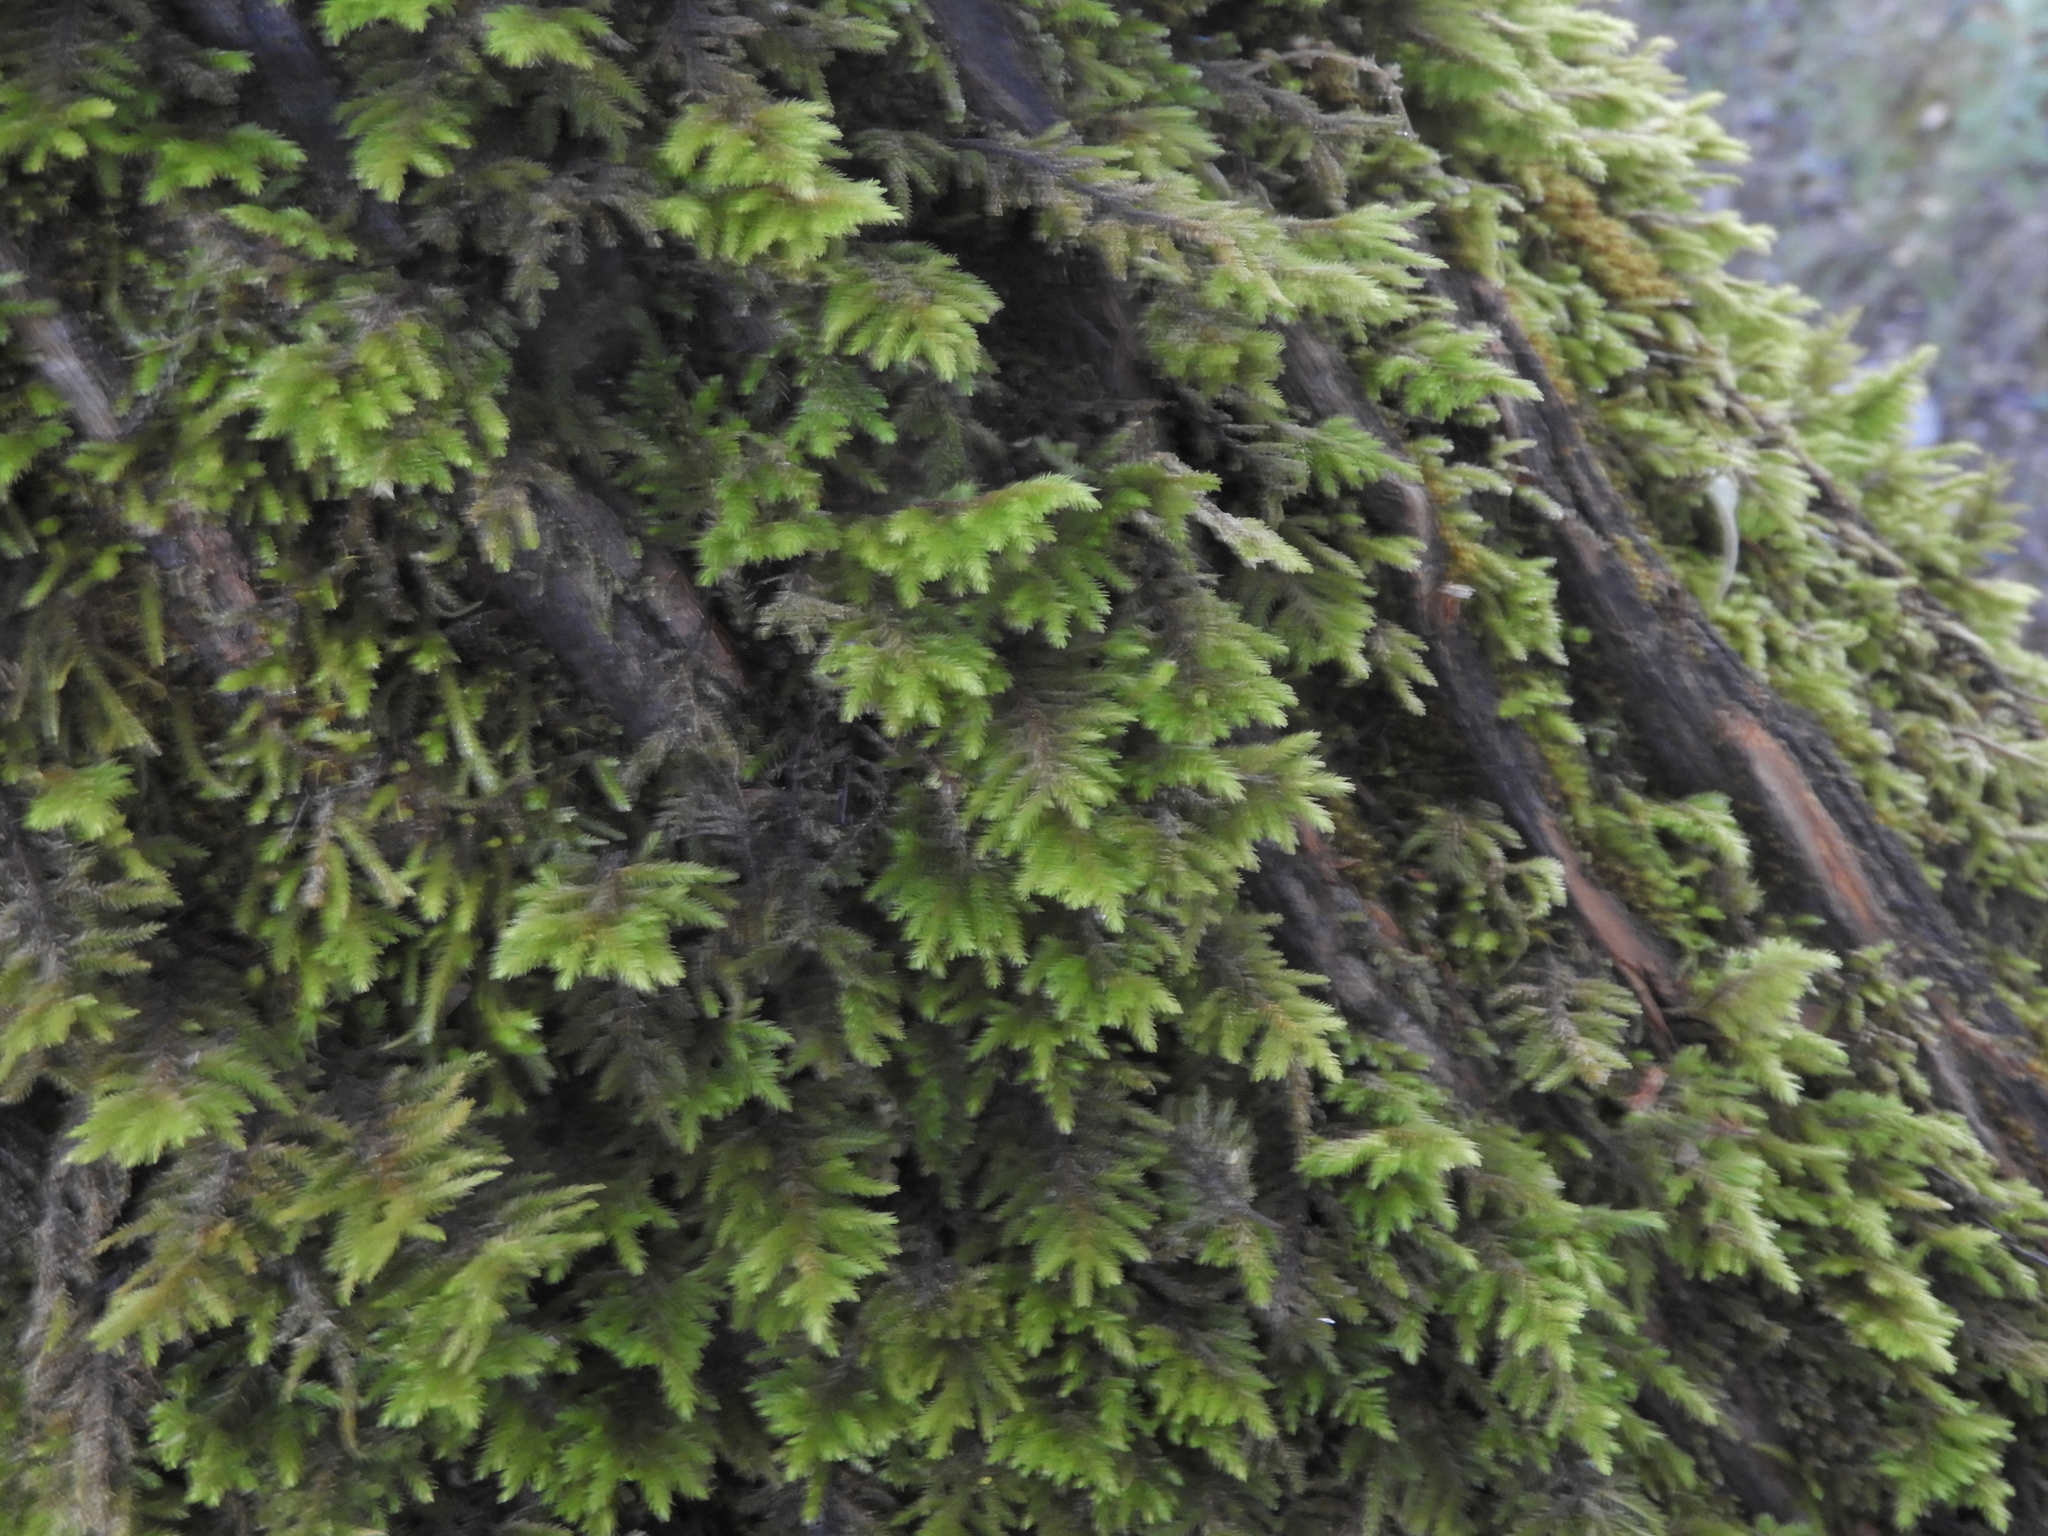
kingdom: Plantae
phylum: Bryophyta
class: Bryopsida
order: Hypnales
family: Cryphaeaceae
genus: Dendroalsia
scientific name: Dendroalsia abietina
